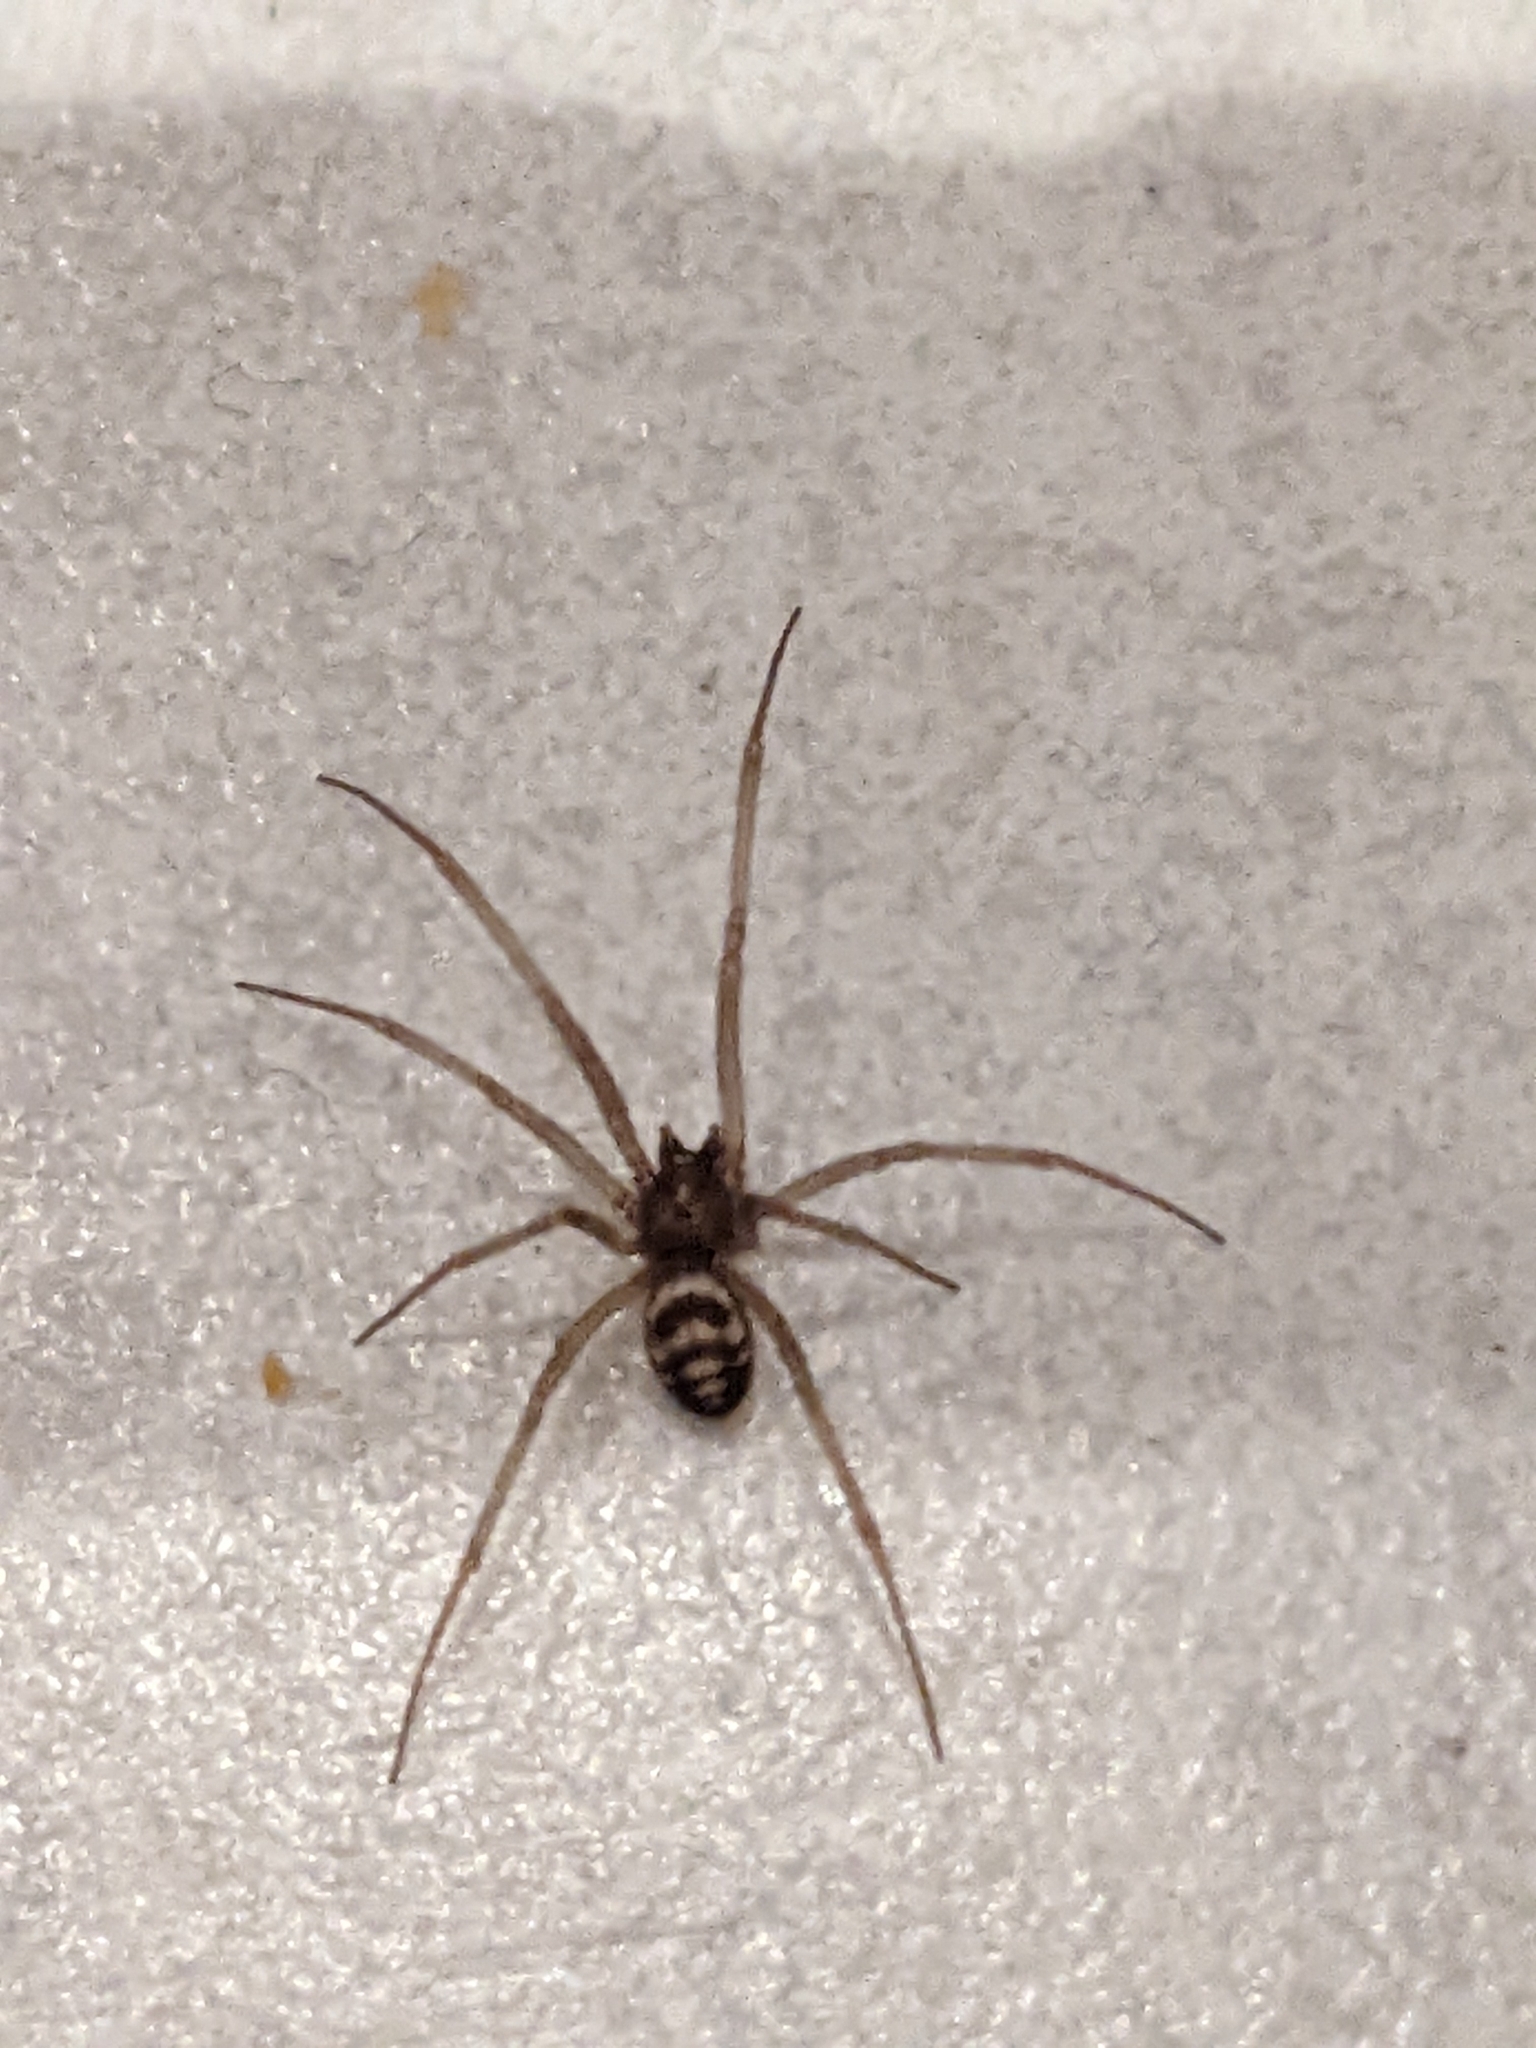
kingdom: Animalia
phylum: Arthropoda
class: Arachnida
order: Araneae
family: Theridiidae
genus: Steatoda
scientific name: Steatoda grossa
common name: False black widow
